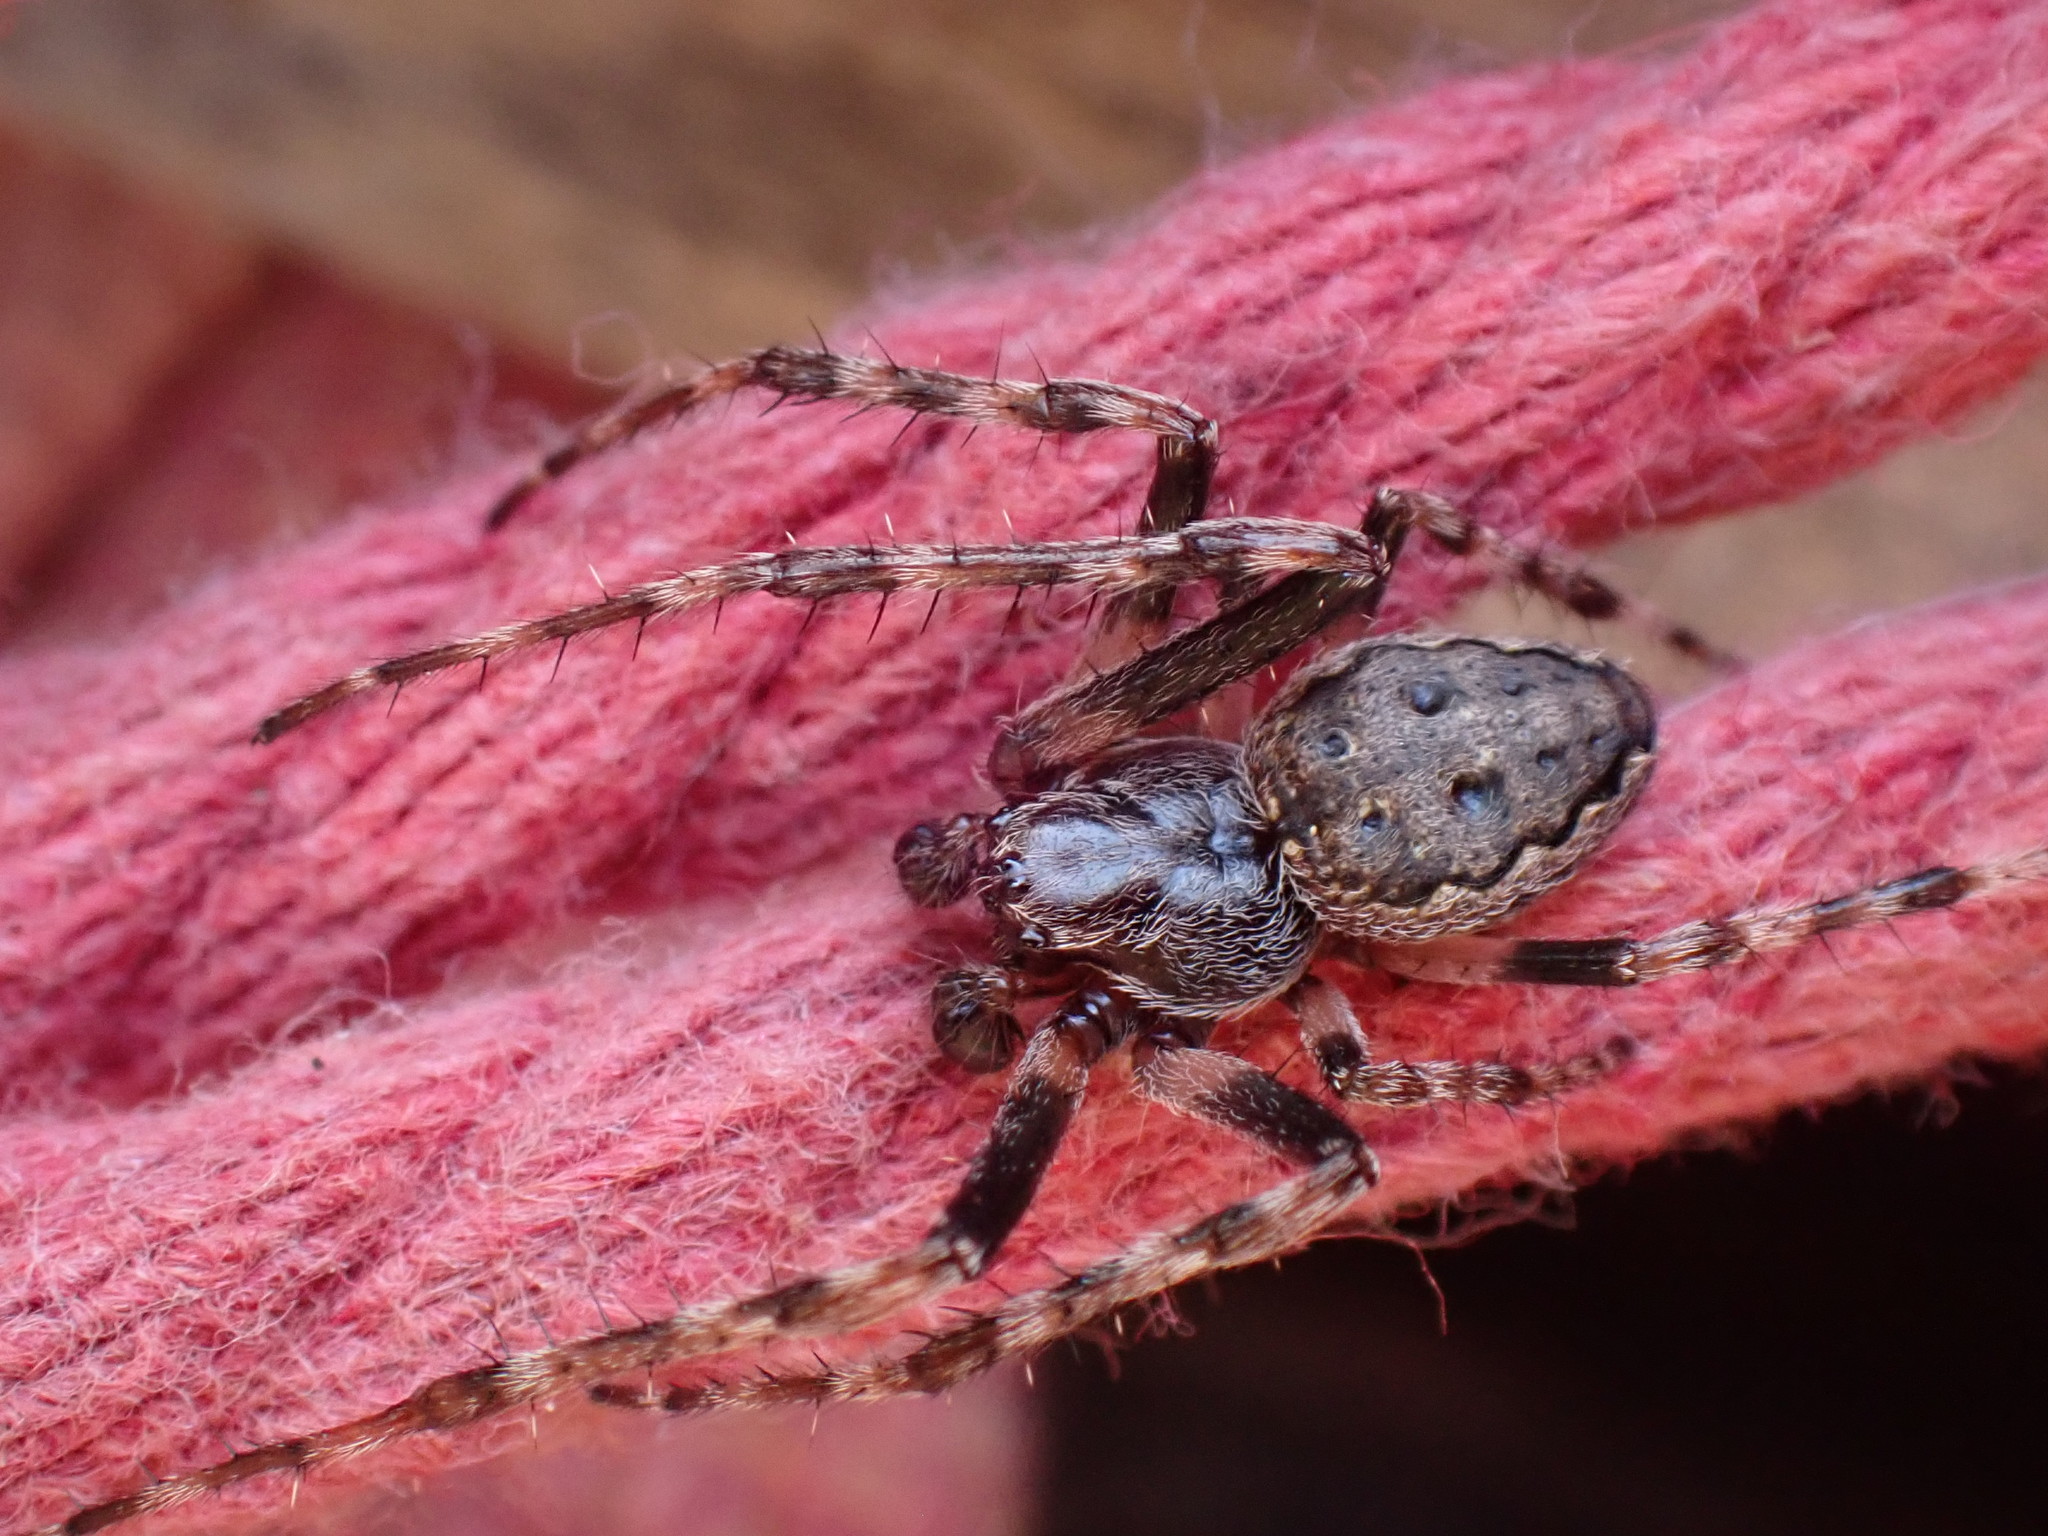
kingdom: Animalia
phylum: Arthropoda
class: Arachnida
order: Araneae
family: Araneidae
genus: Nuctenea
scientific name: Nuctenea umbratica
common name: Toad spider
